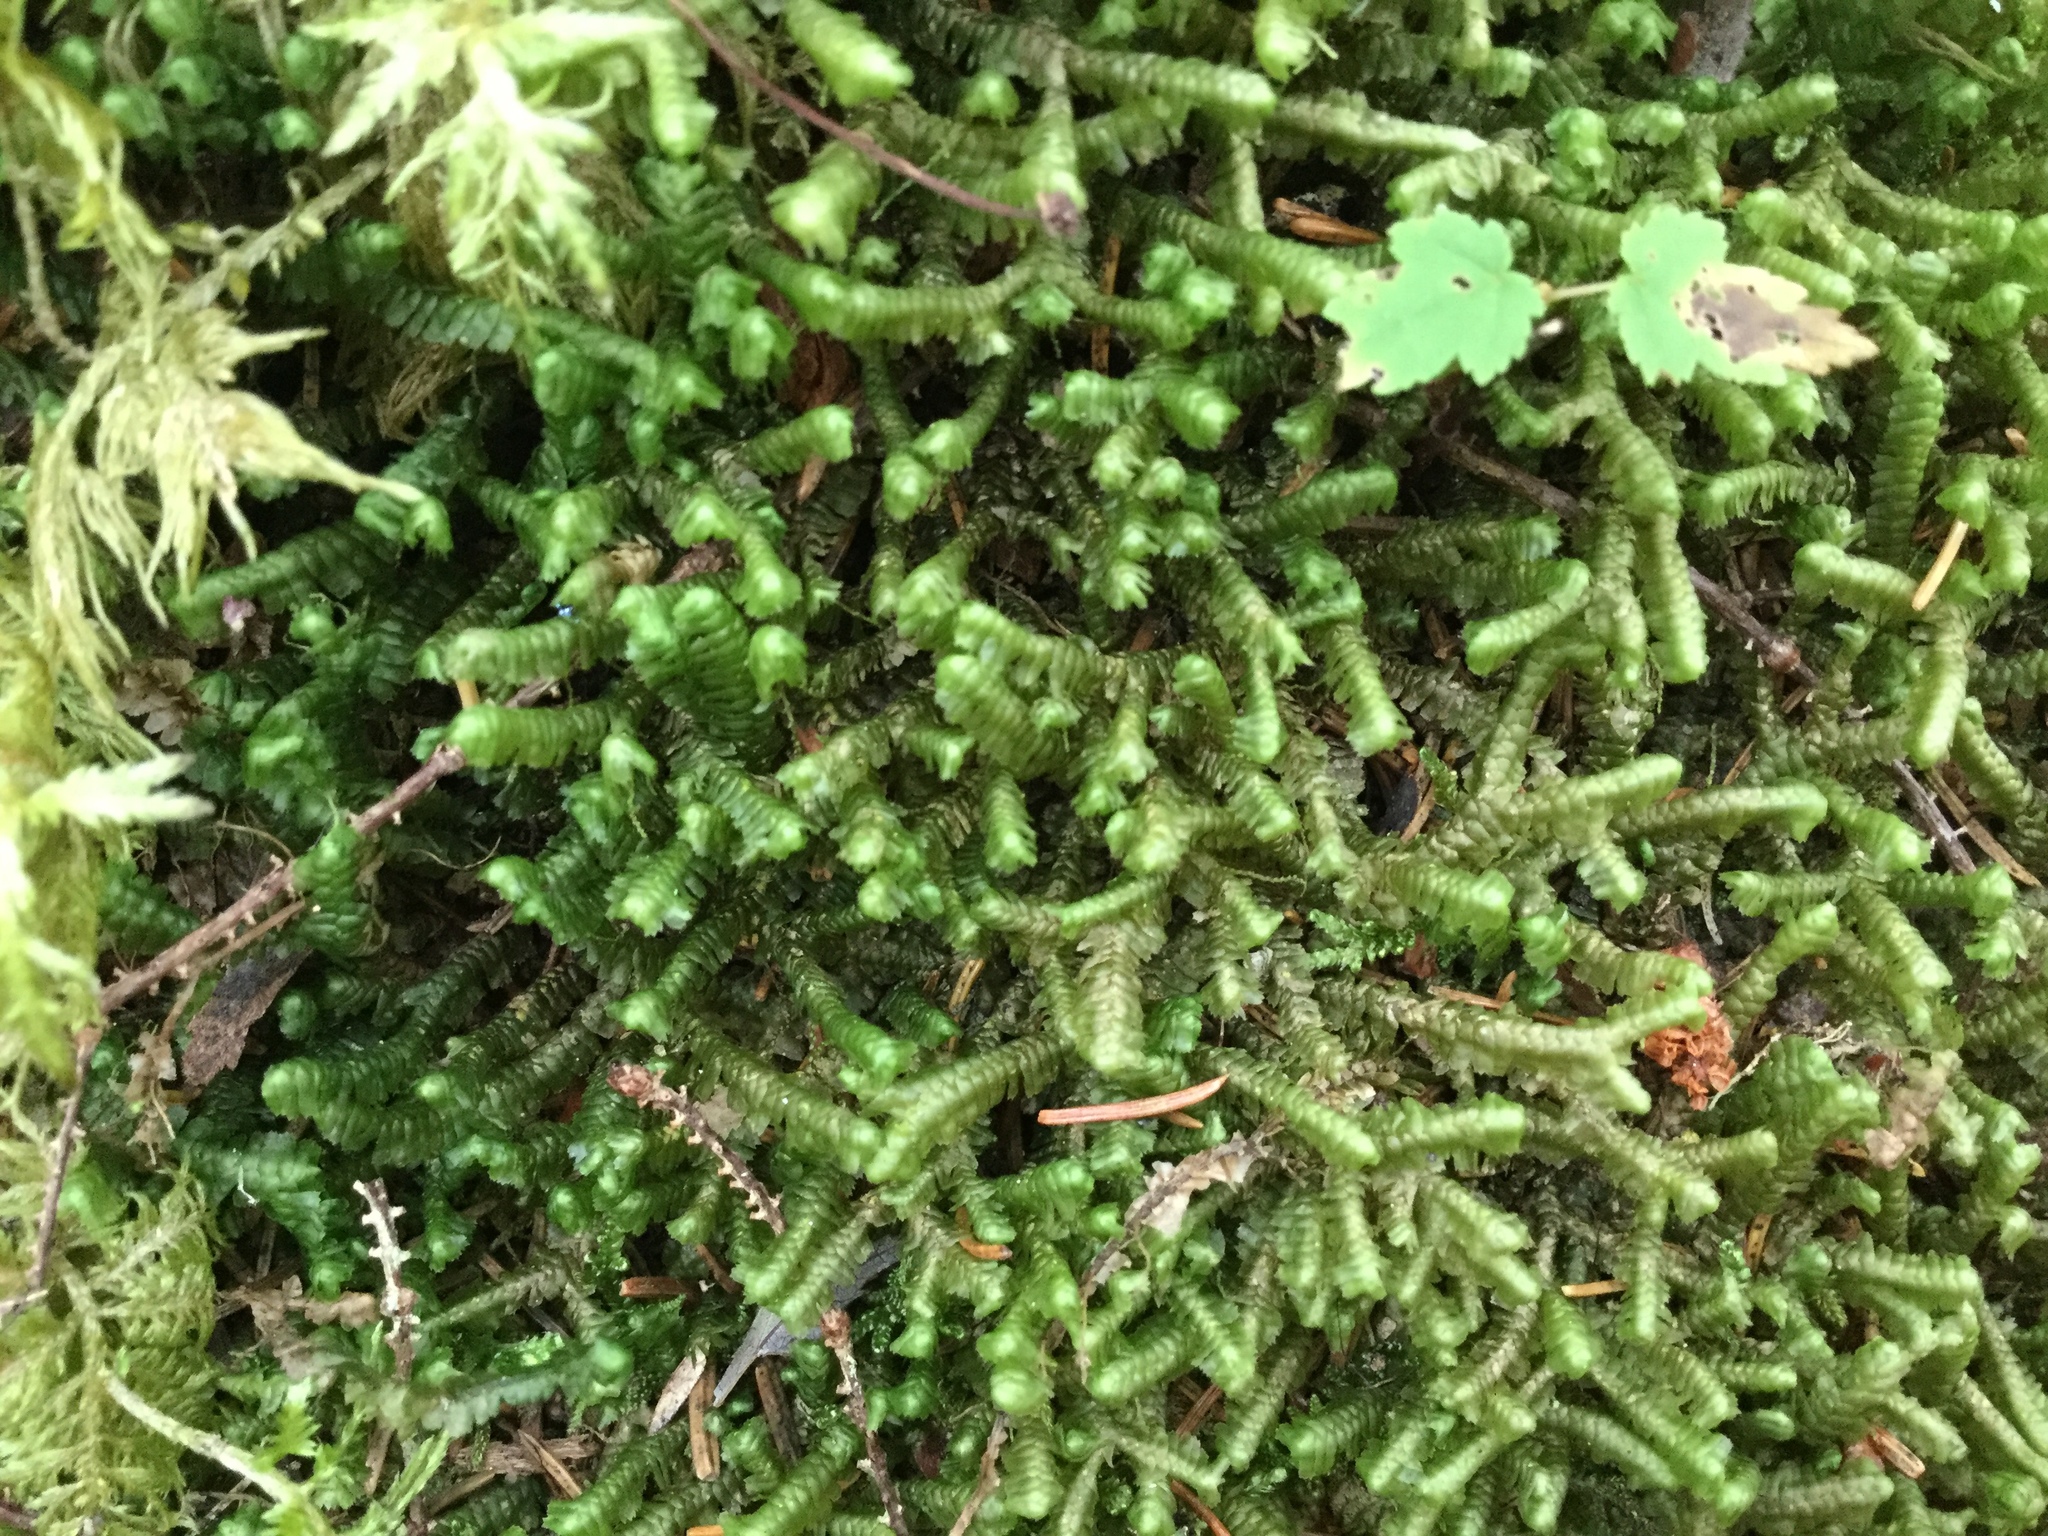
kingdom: Plantae
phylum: Marchantiophyta
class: Jungermanniopsida
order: Jungermanniales
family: Lepidoziaceae
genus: Bazzania
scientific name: Bazzania trilobata
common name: Three-lobed whipwort
